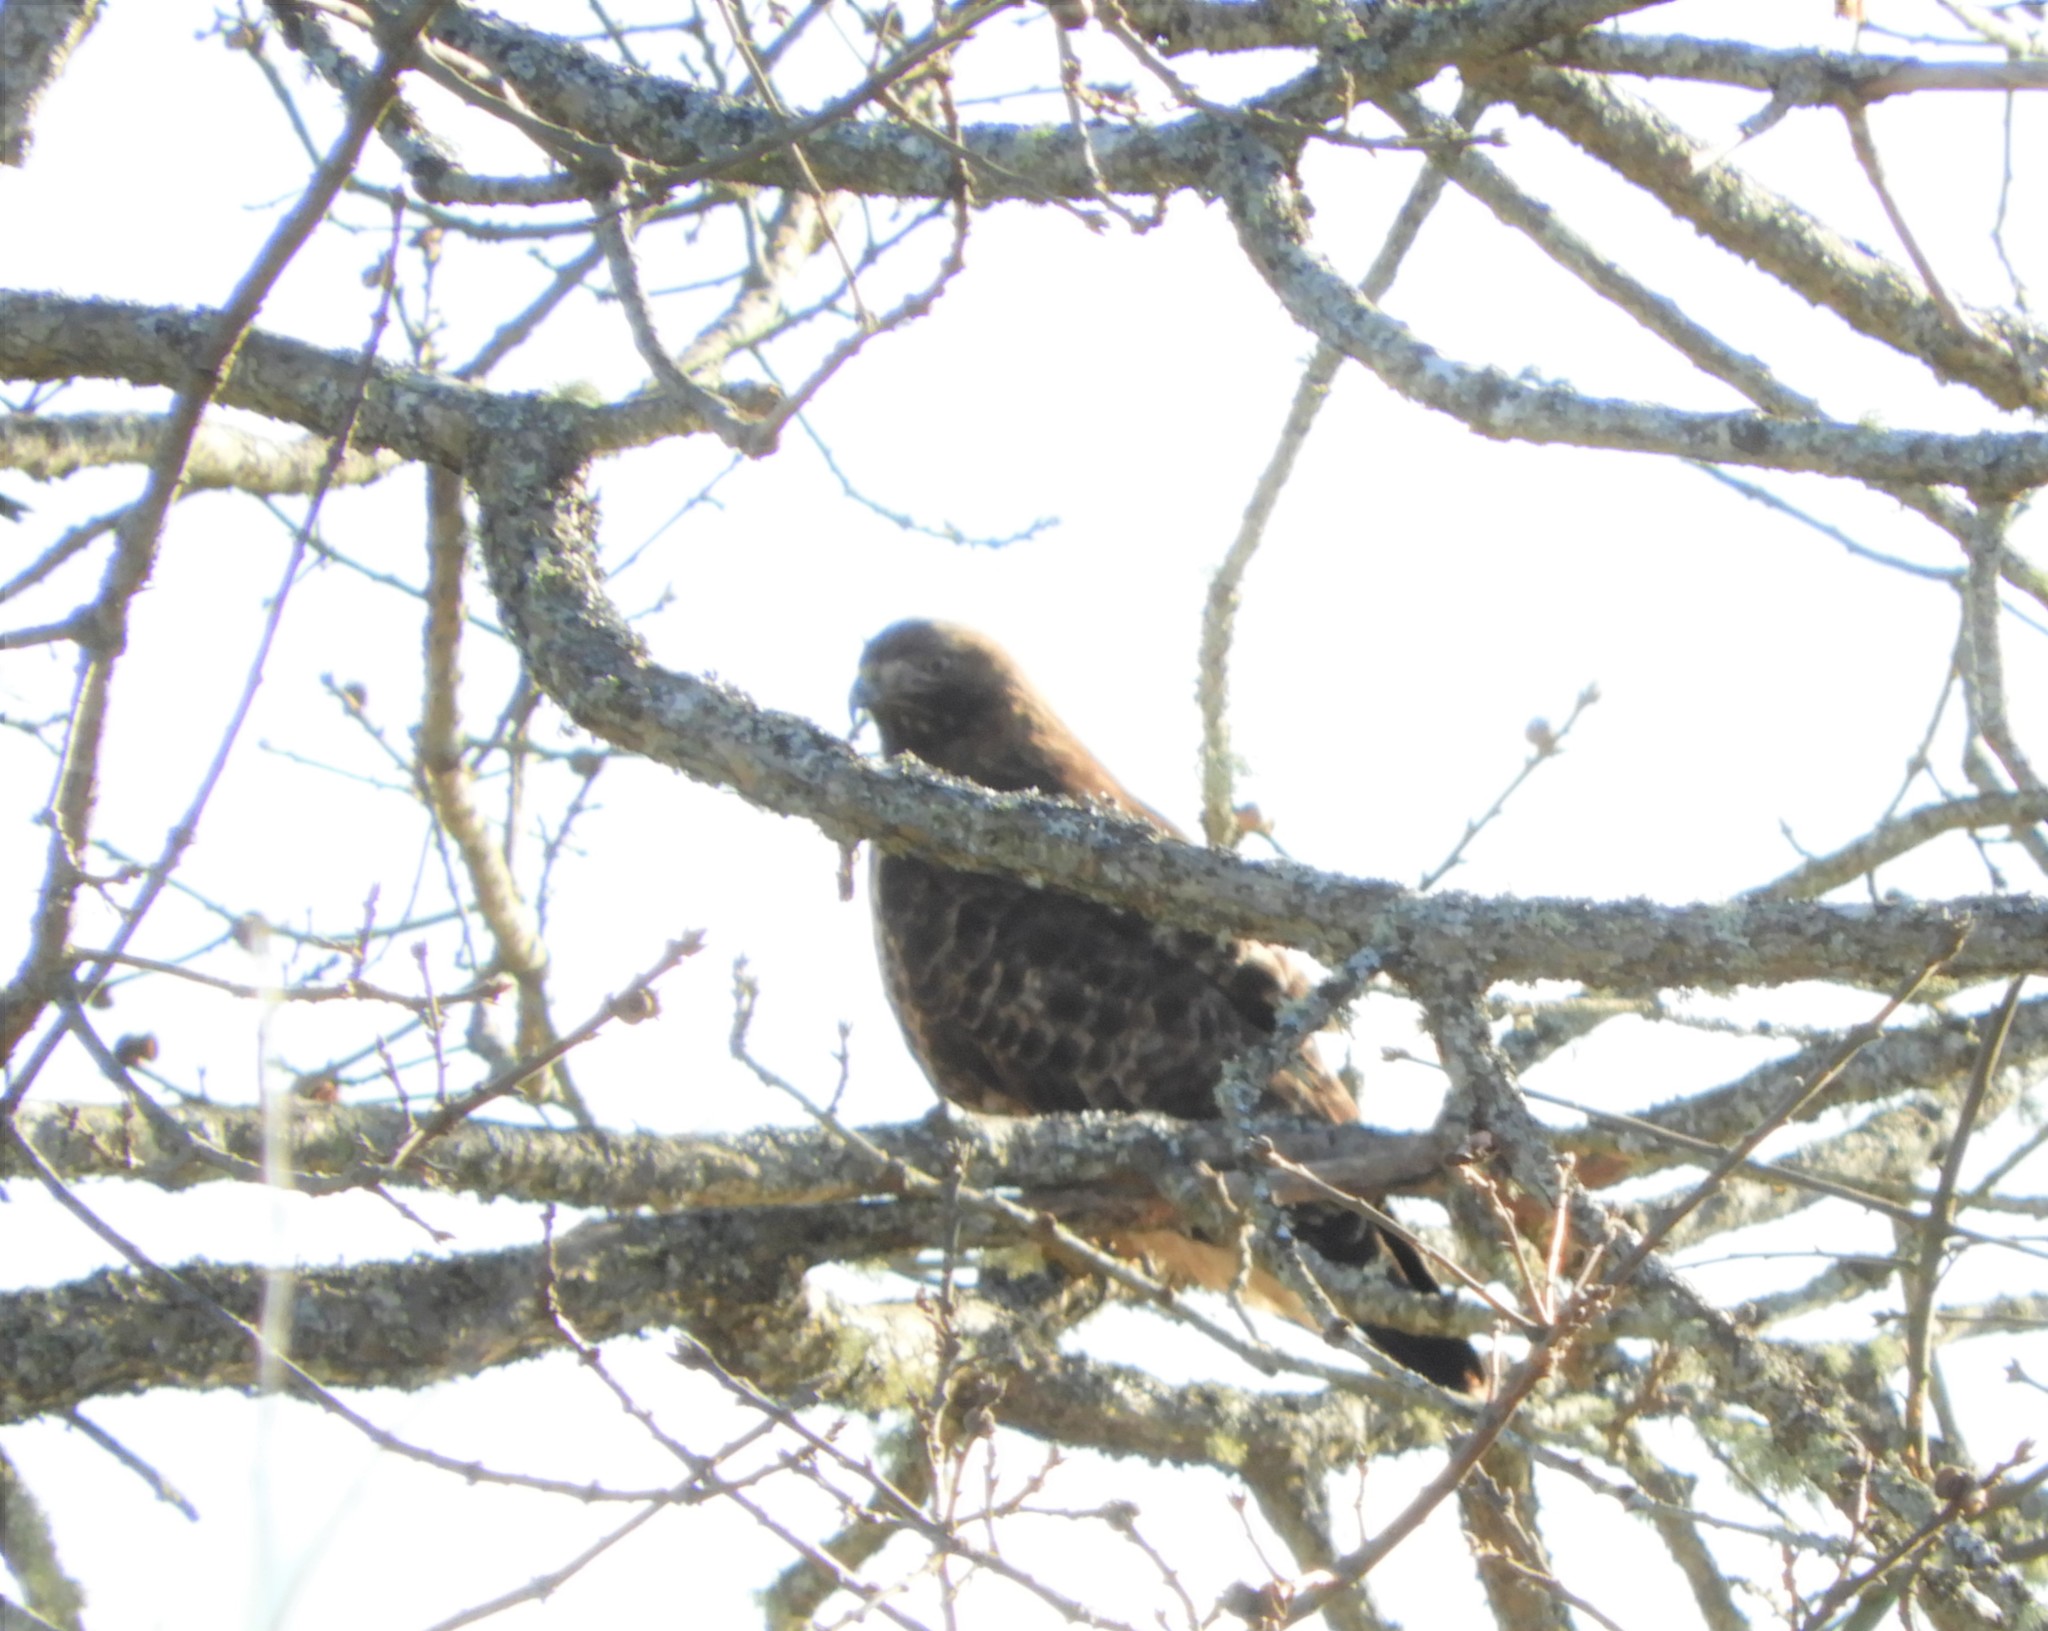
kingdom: Animalia
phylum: Chordata
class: Aves
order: Accipitriformes
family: Accipitridae
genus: Buteo
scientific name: Buteo jamaicensis
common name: Red-tailed hawk
